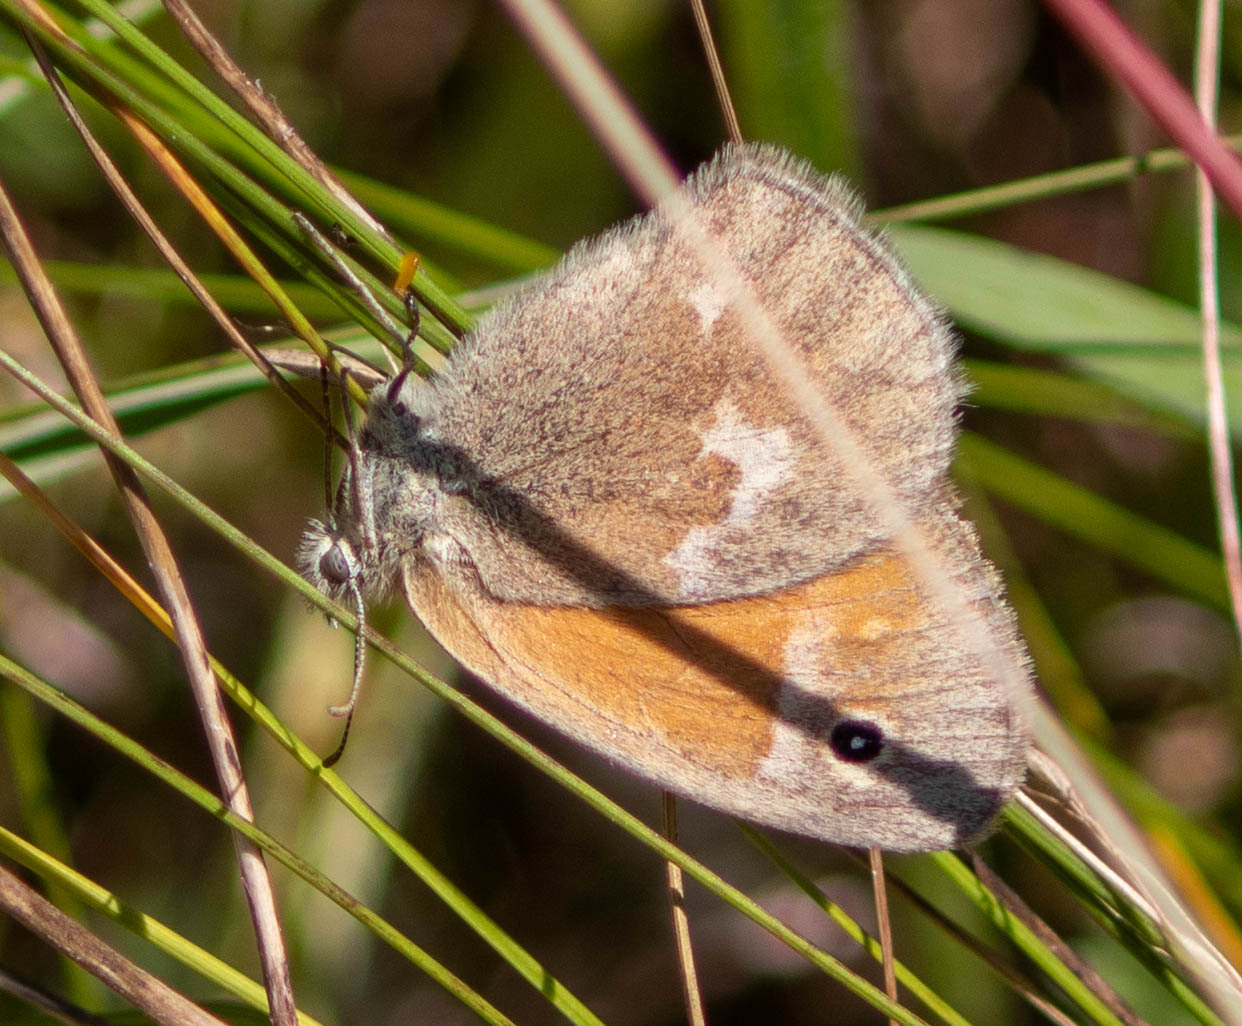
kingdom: Animalia
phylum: Arthropoda
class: Insecta
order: Lepidoptera
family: Nymphalidae
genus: Coenonympha
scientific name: Coenonympha california
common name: Common ringlet
